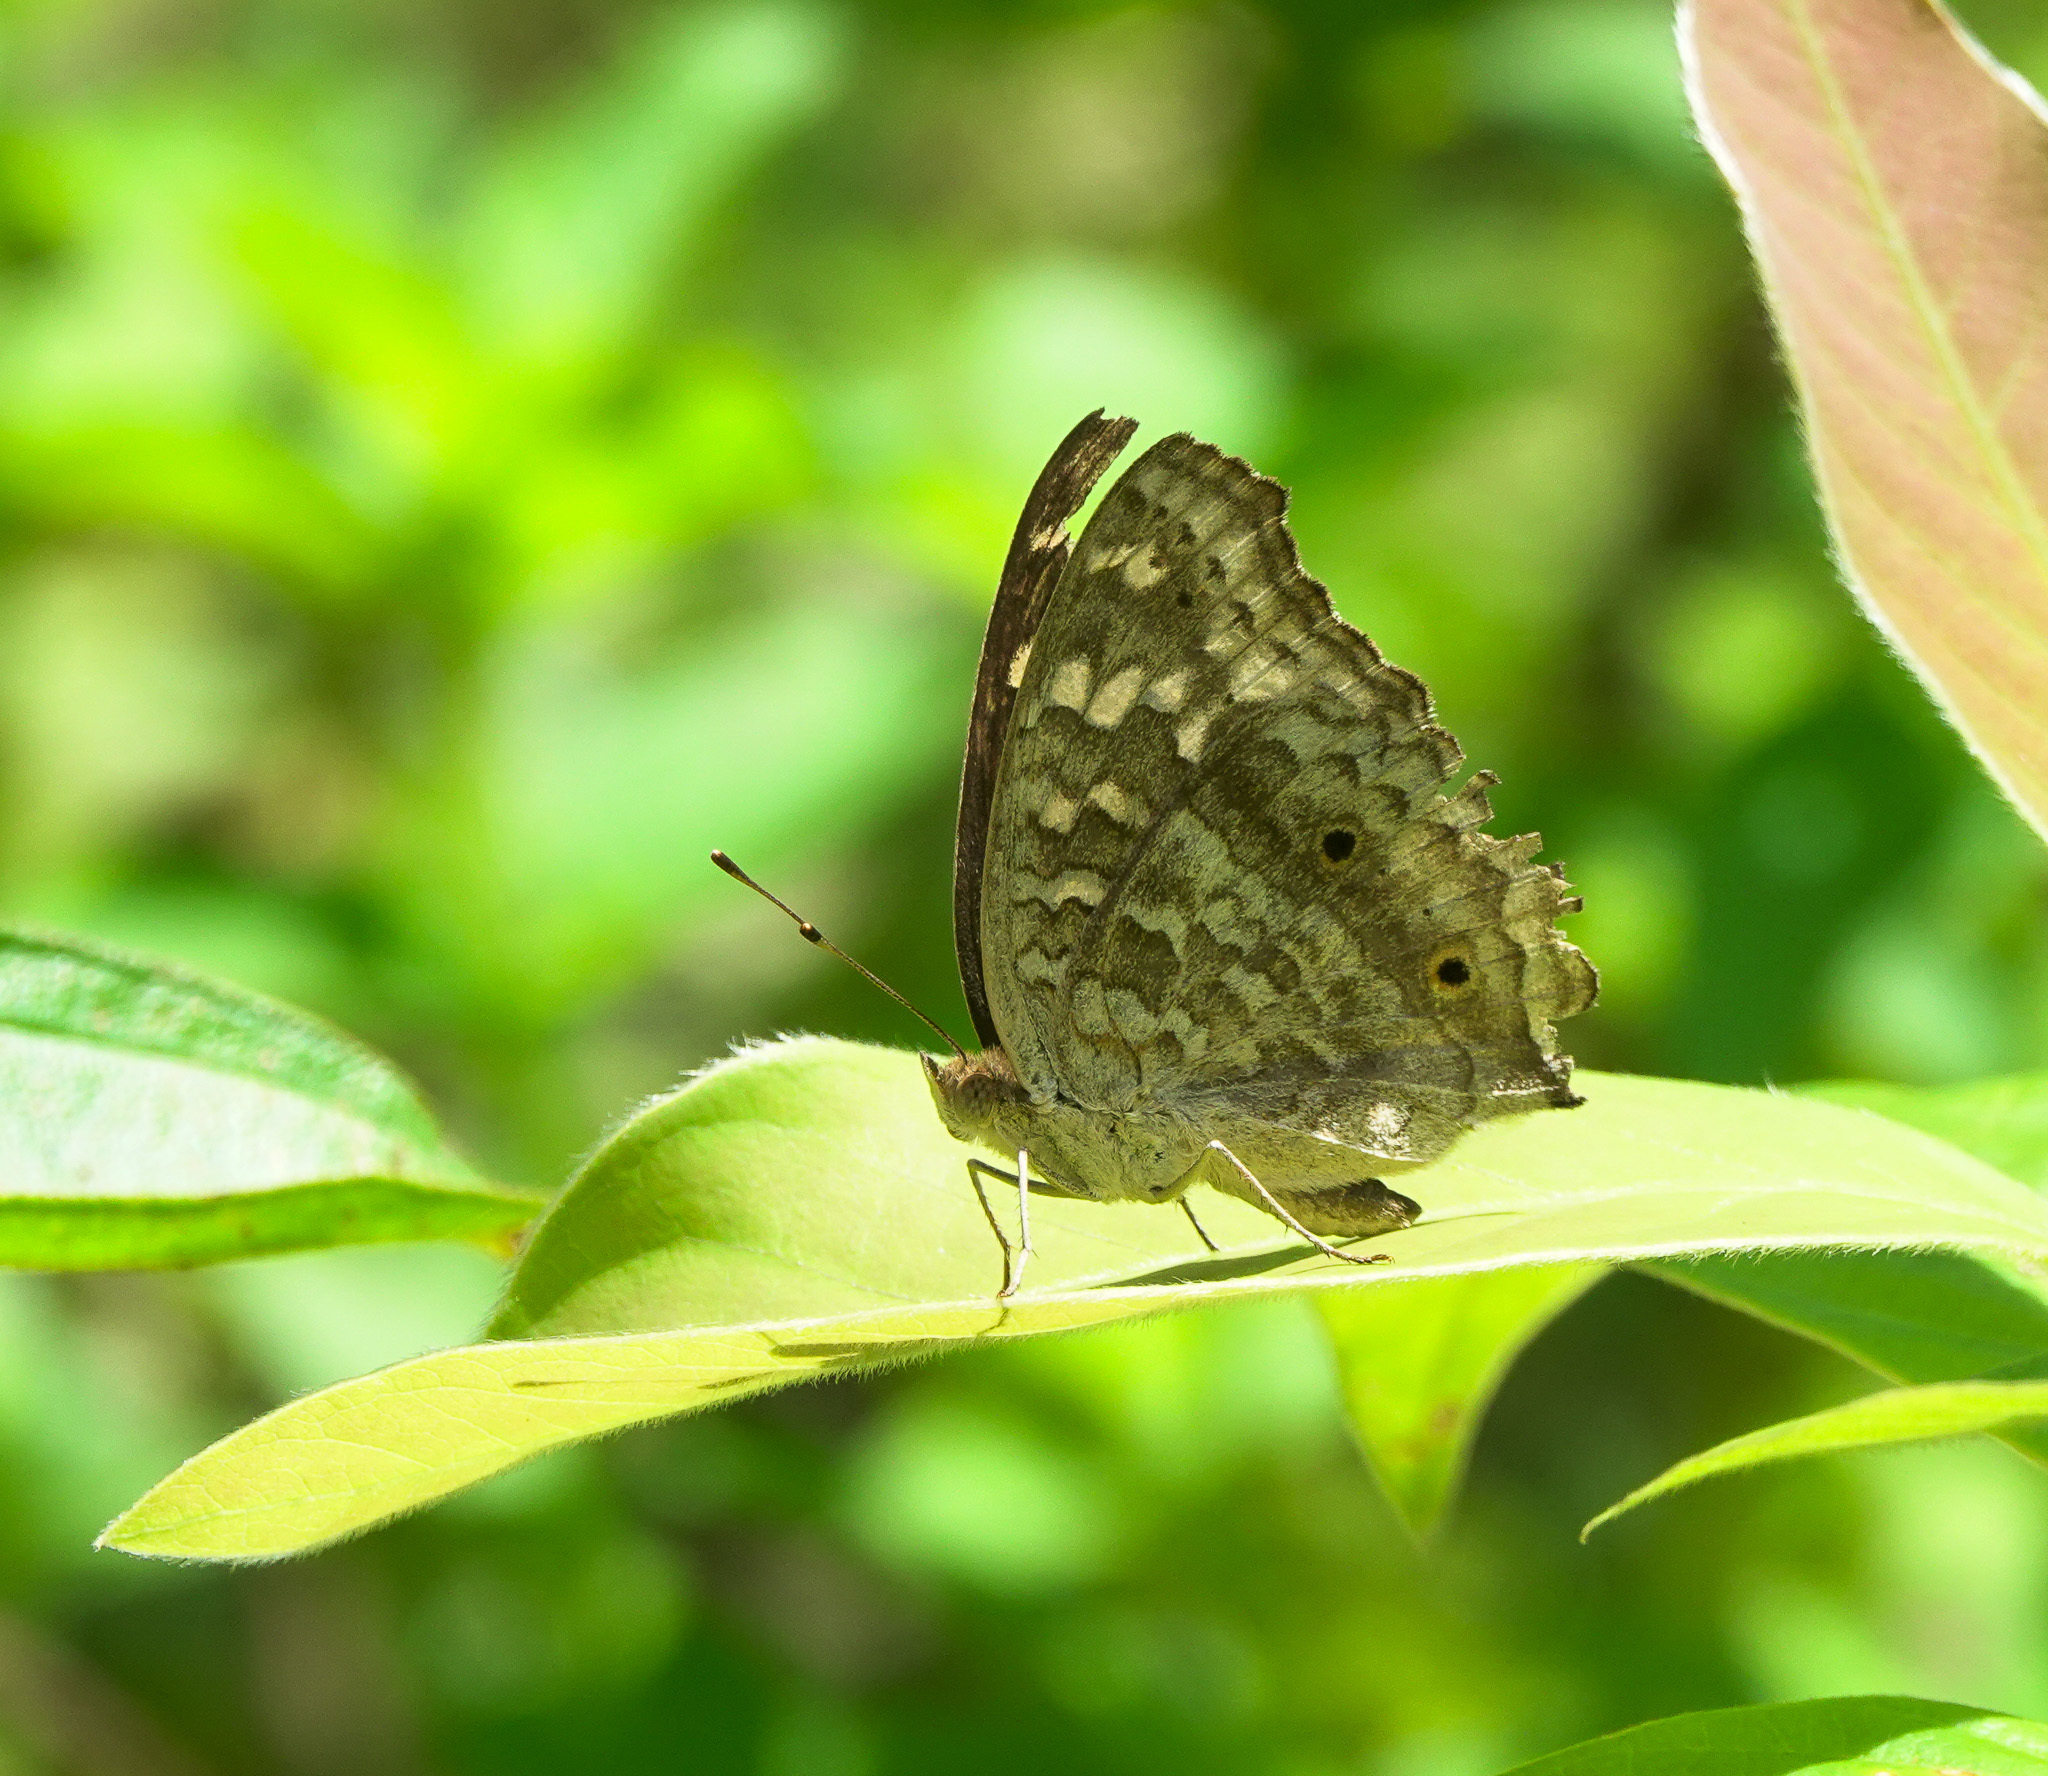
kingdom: Animalia
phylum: Arthropoda
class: Insecta
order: Lepidoptera
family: Nymphalidae
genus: Junonia
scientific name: Junonia lemonias
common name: Lemon pansy
